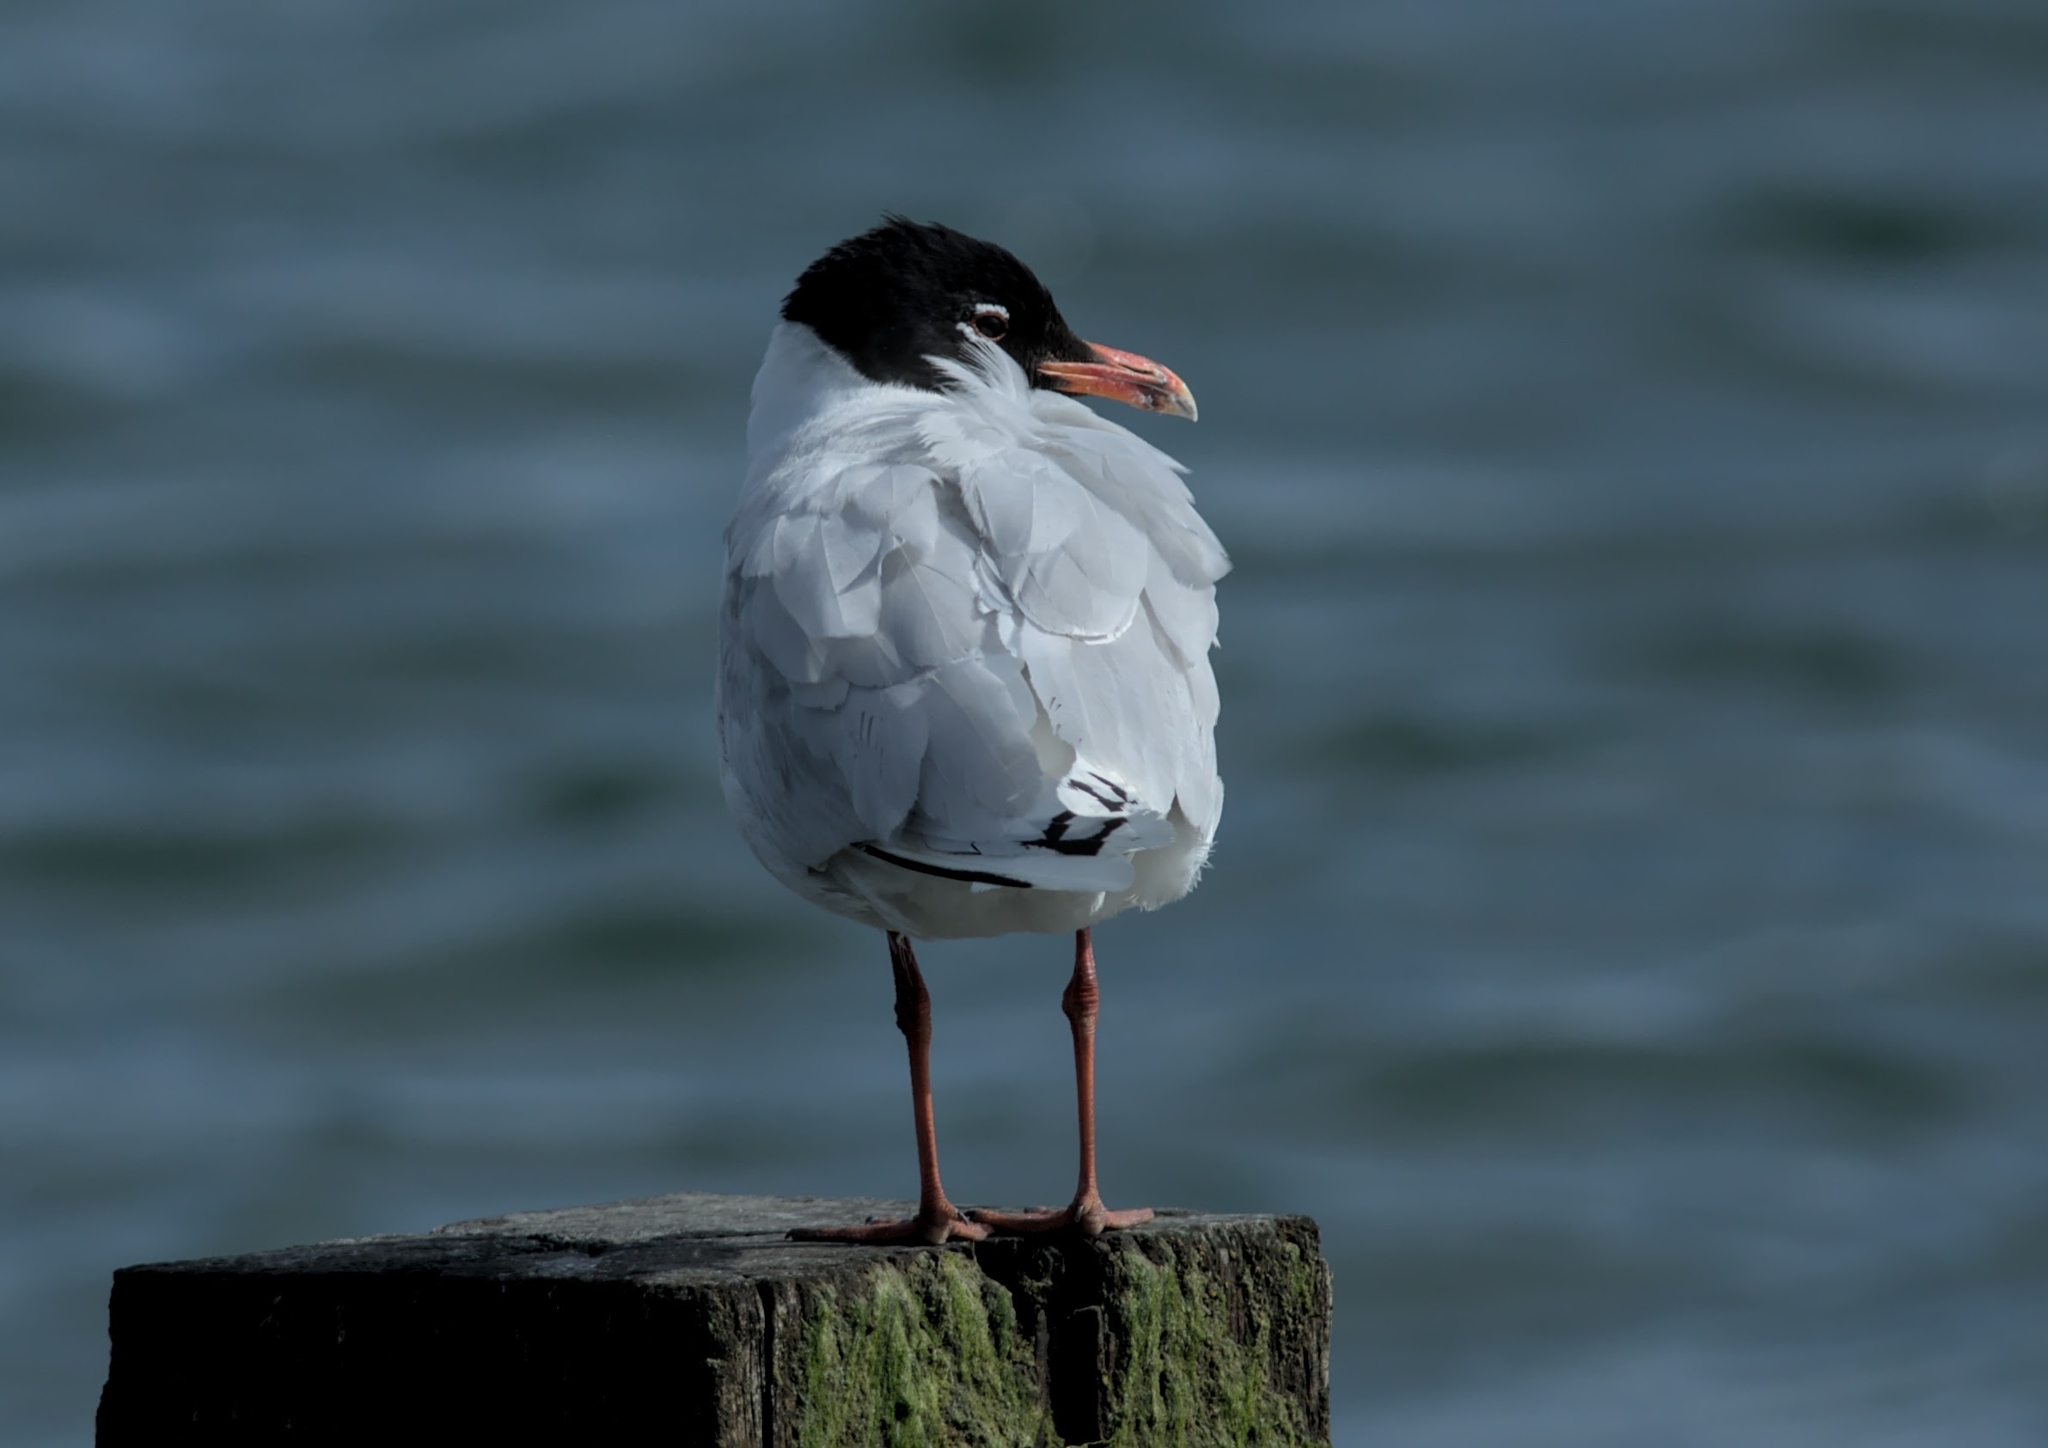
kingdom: Animalia
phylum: Chordata
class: Aves
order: Charadriiformes
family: Laridae
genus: Ichthyaetus
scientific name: Ichthyaetus melanocephalus
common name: Mediterranean gull
